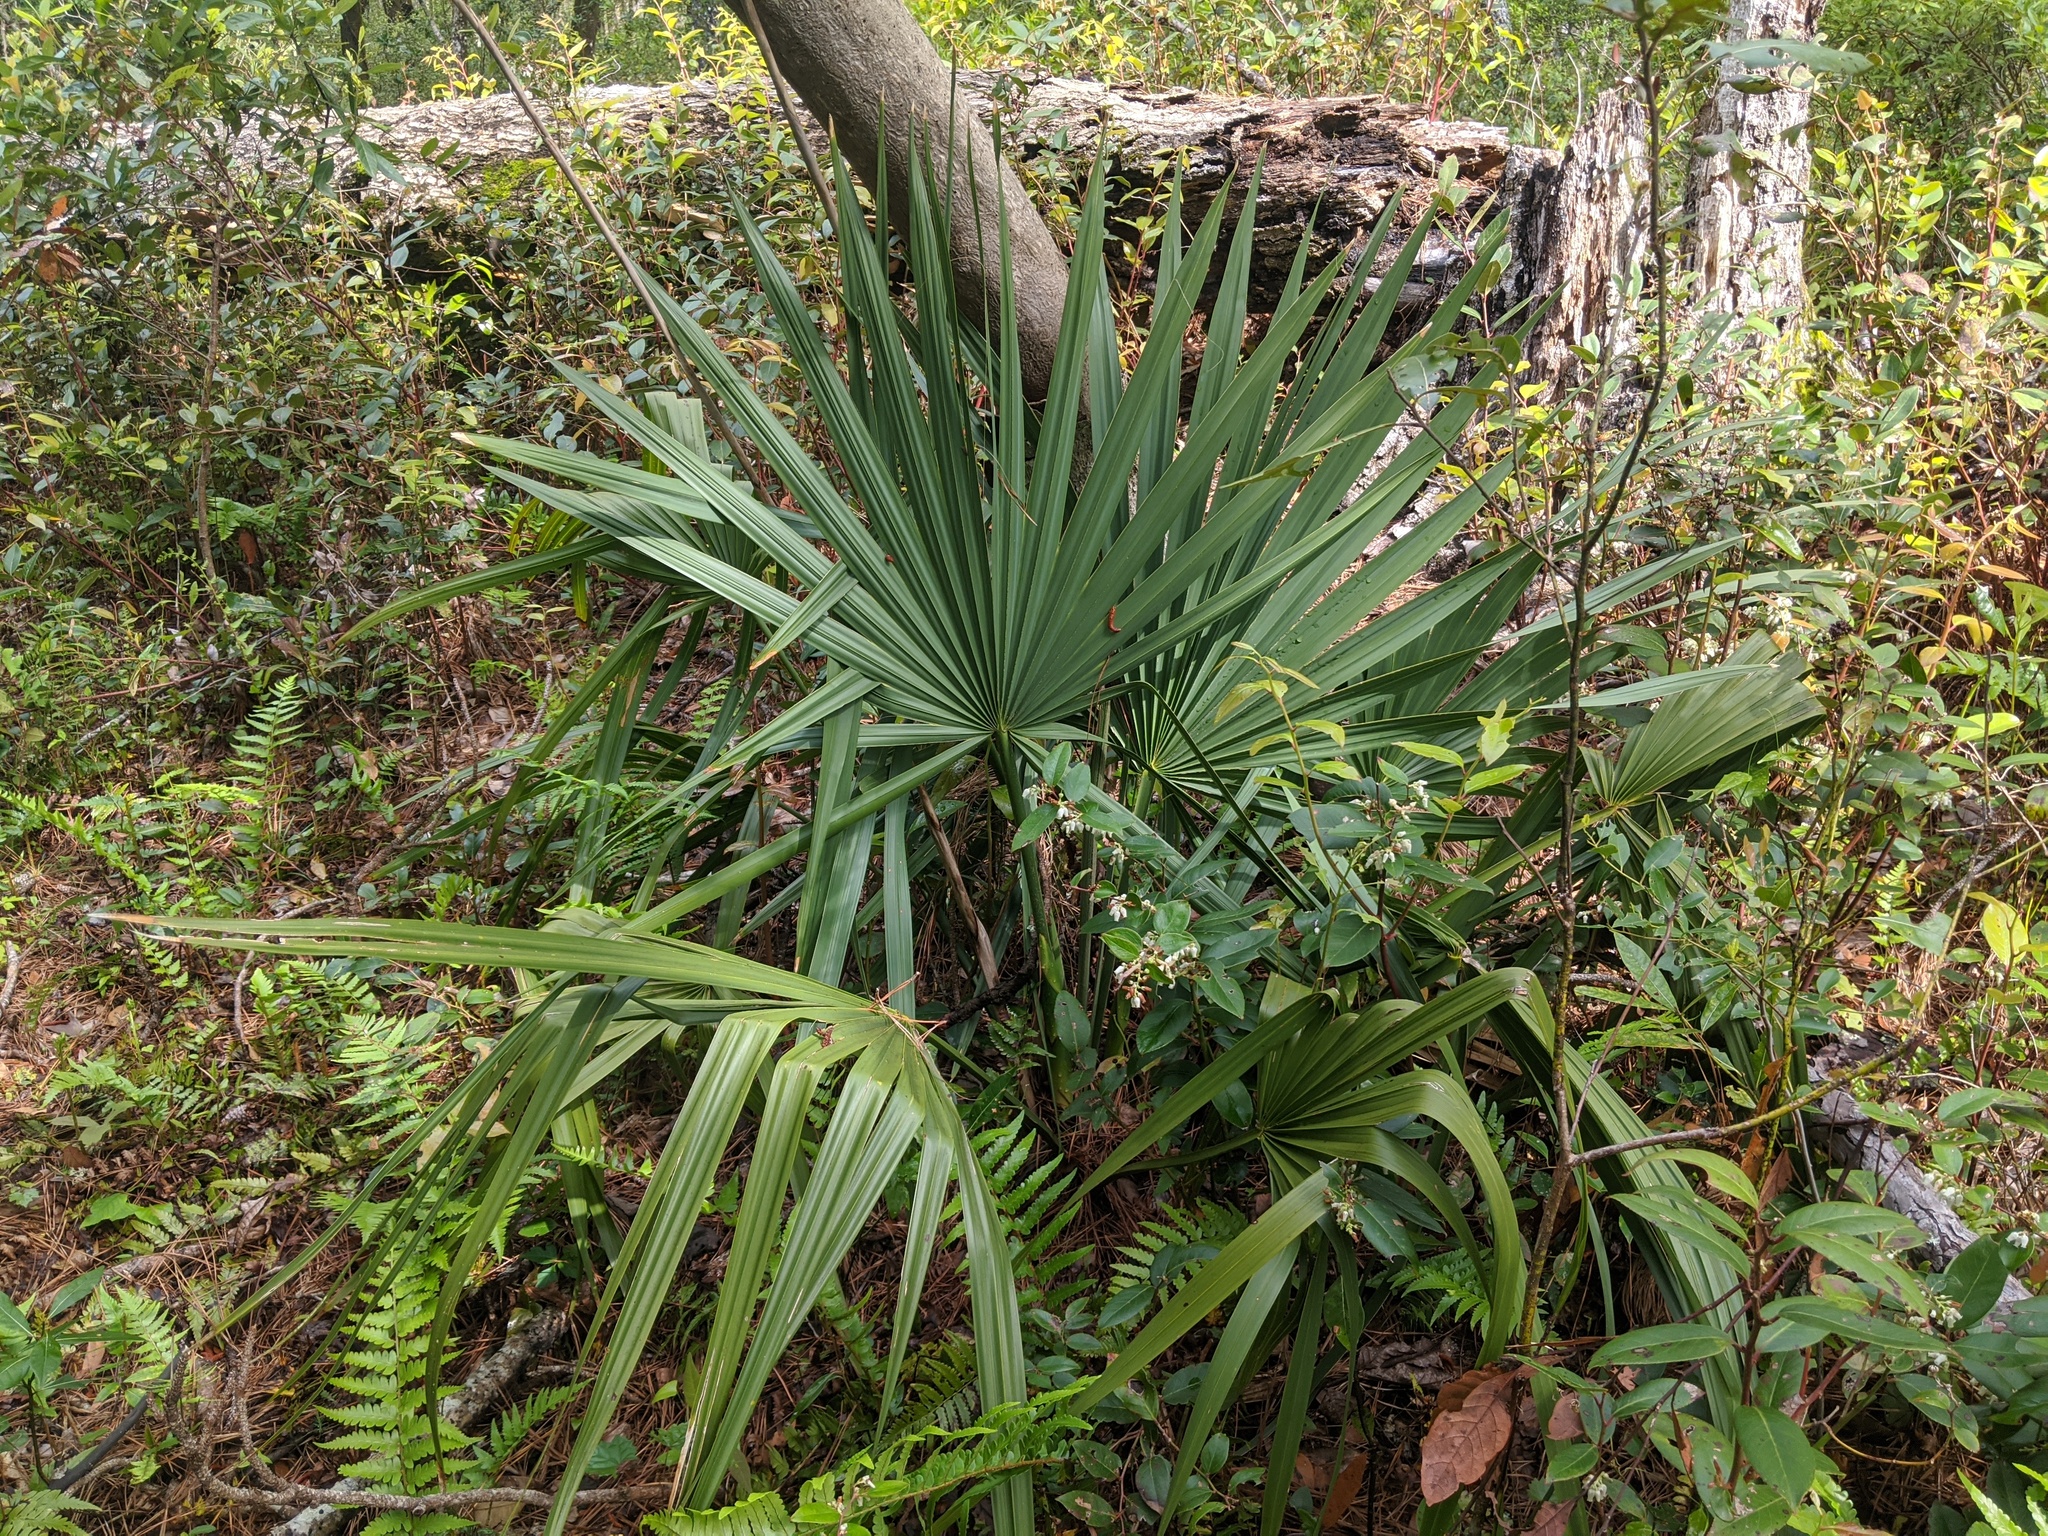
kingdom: Plantae
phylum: Tracheophyta
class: Liliopsida
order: Arecales
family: Arecaceae
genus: Sabal
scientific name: Sabal minor
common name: Dwarf palmetto
